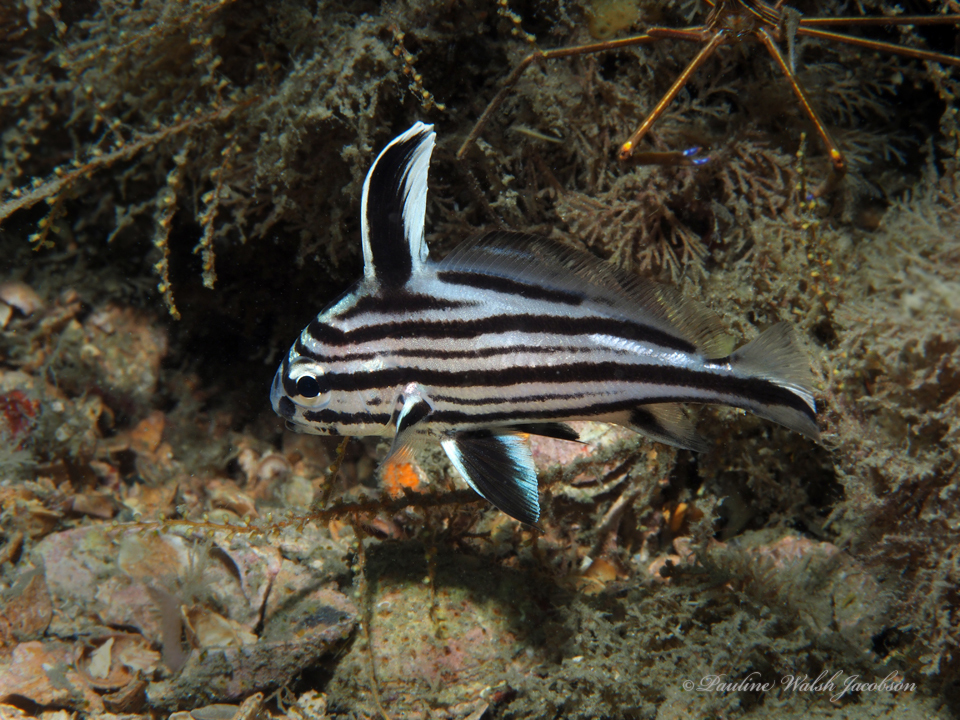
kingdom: Animalia
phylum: Chordata
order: Perciformes
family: Sciaenidae
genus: Pareques
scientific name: Pareques acuminatus
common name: High-hat
